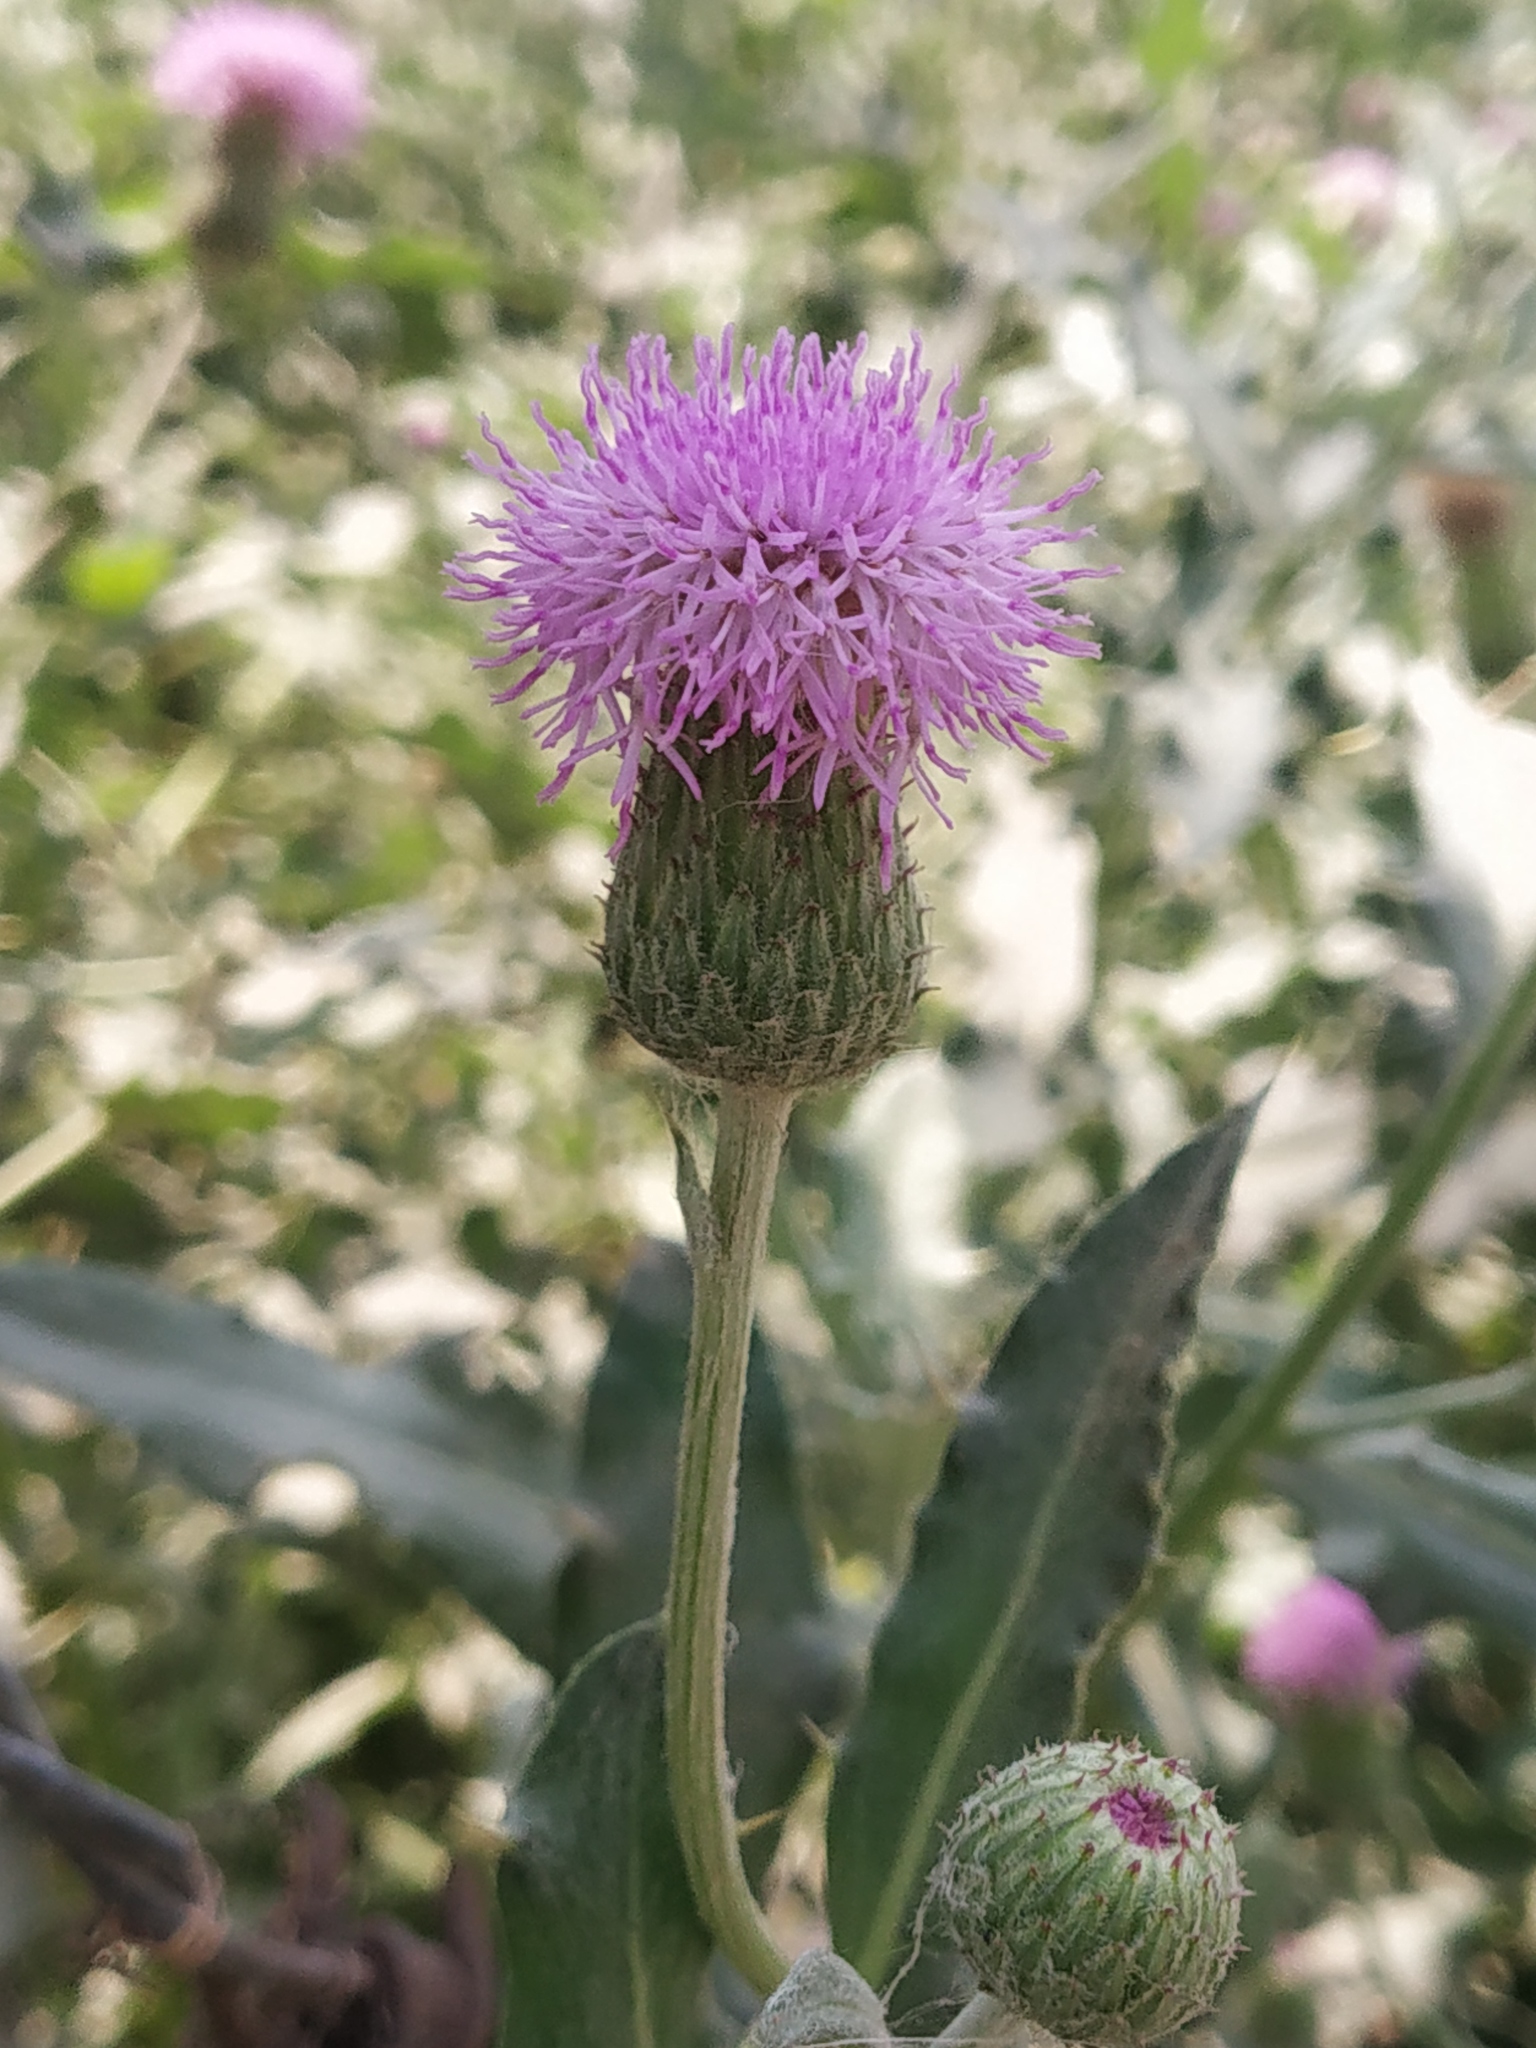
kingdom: Plantae
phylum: Tracheophyta
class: Magnoliopsida
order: Asterales
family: Asteraceae
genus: Cirsium
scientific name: Cirsium arvense
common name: Creeping thistle
